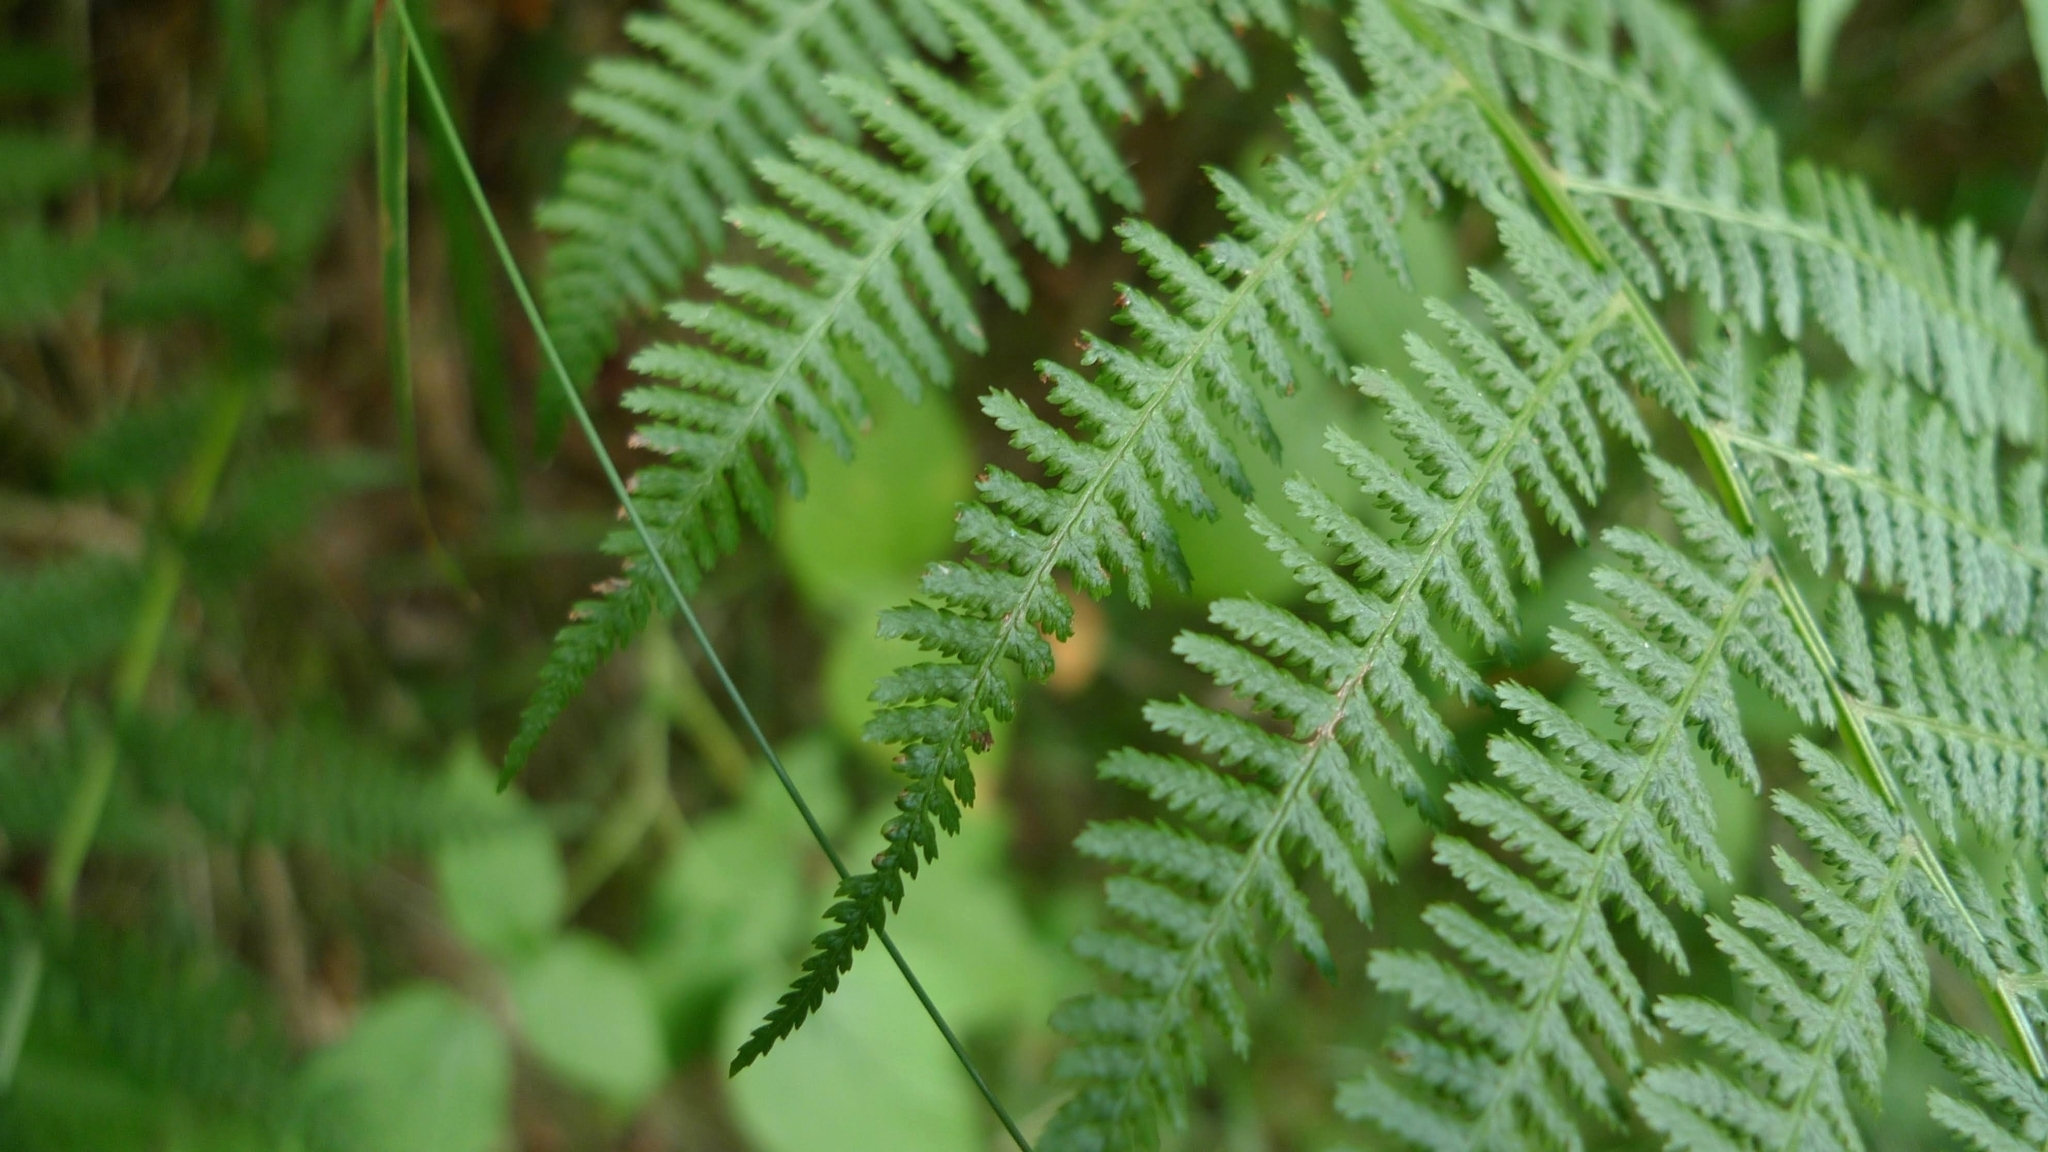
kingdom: Plantae
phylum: Tracheophyta
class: Polypodiopsida
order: Polypodiales
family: Dennstaedtiaceae
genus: Pteridium
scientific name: Pteridium aquilinum
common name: Bracken
